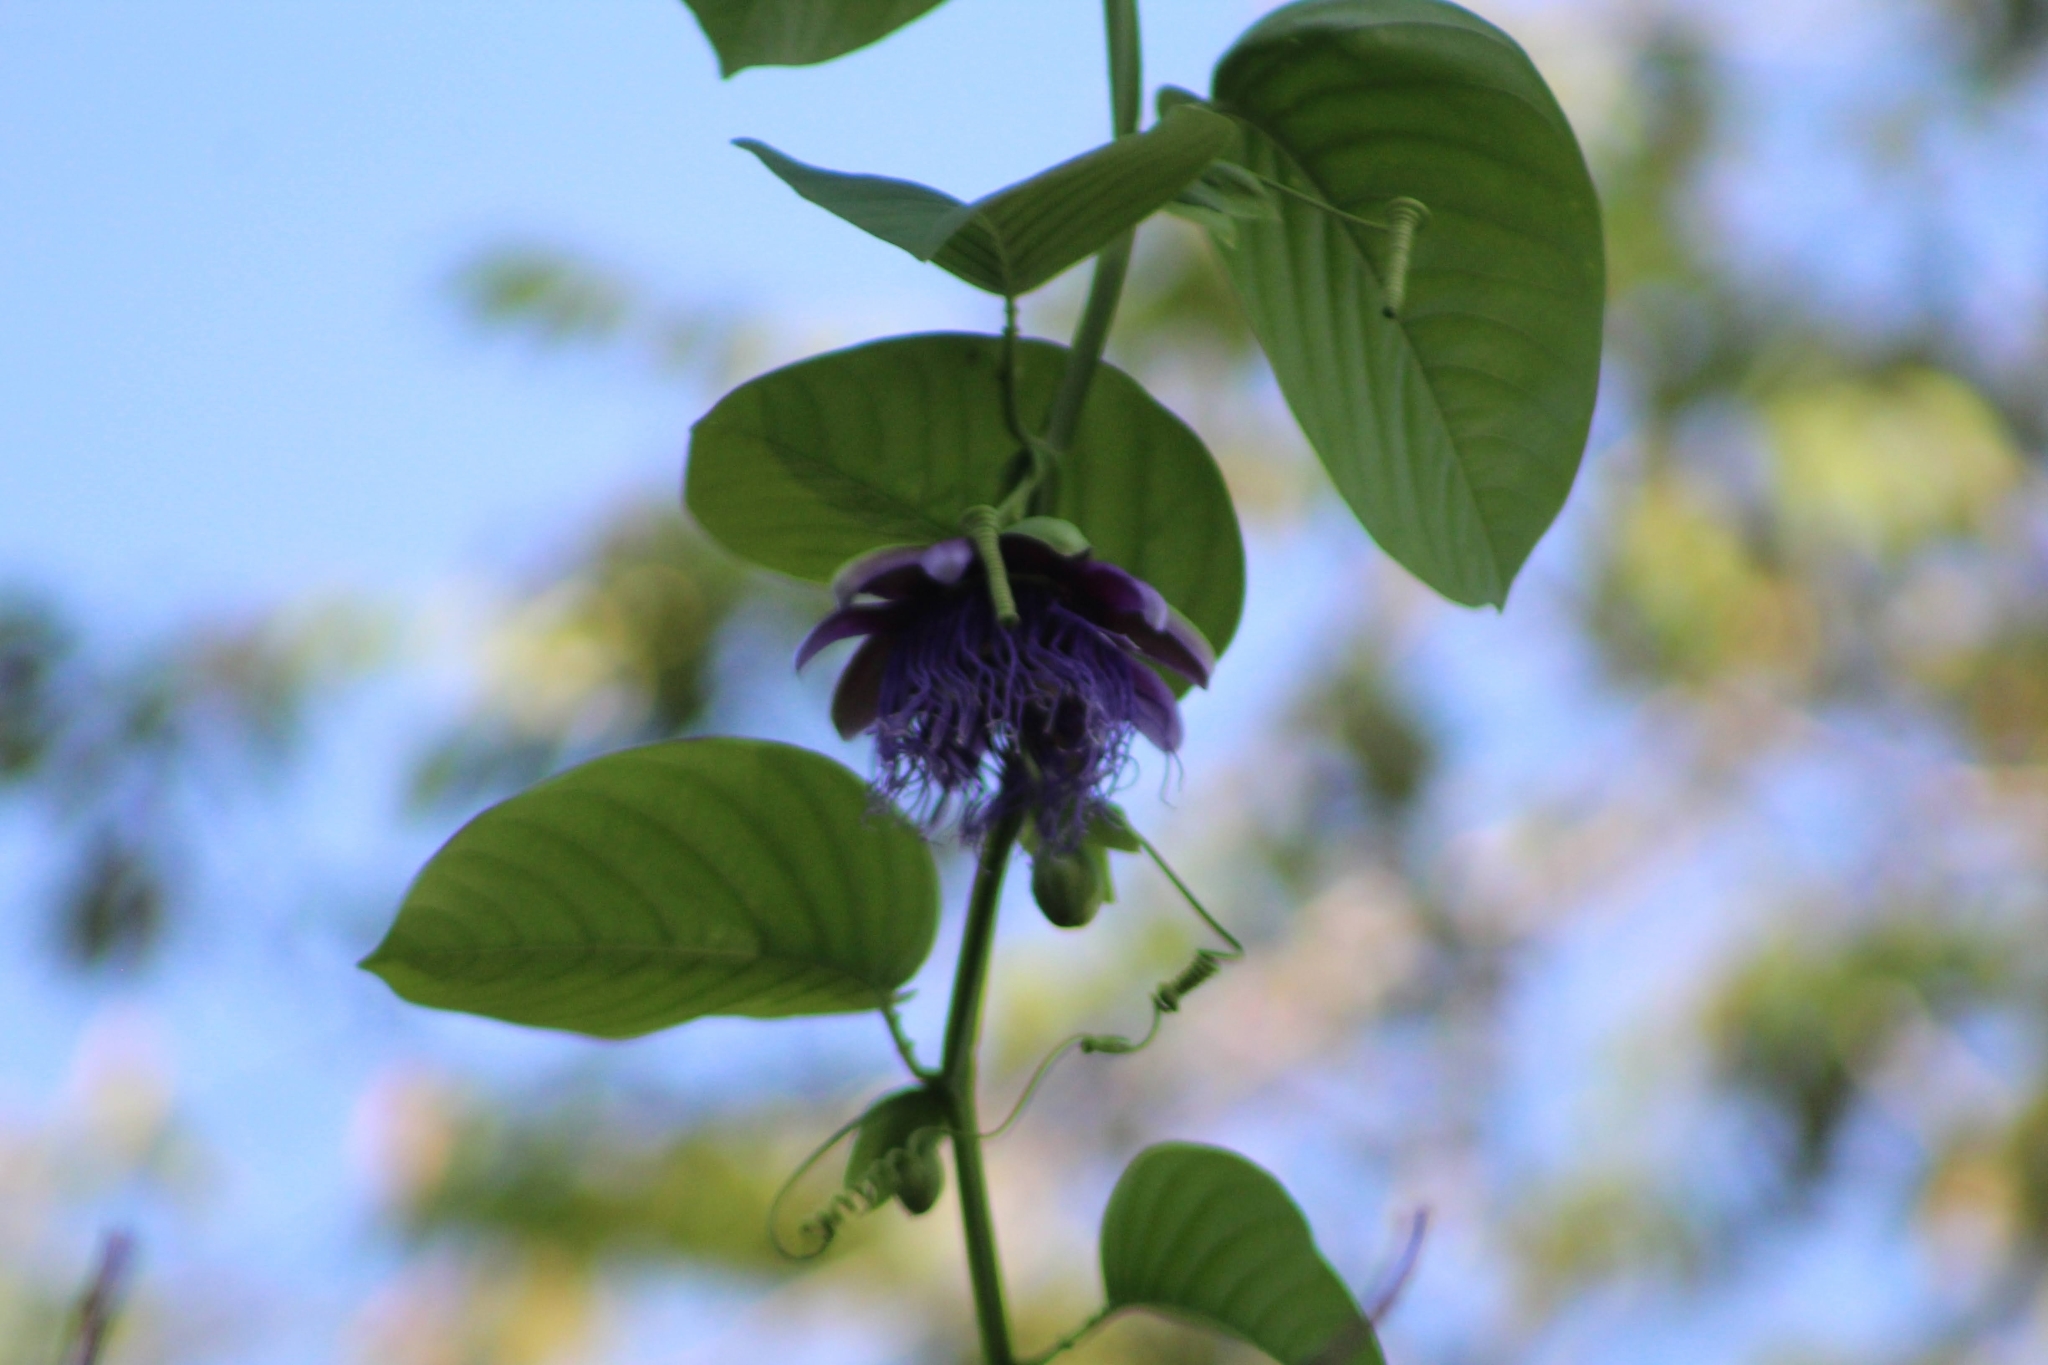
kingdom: Plantae
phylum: Tracheophyta
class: Magnoliopsida
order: Malpighiales
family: Passifloraceae
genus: Passiflora
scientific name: Passiflora quadrangularis
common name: Giant granadilla
